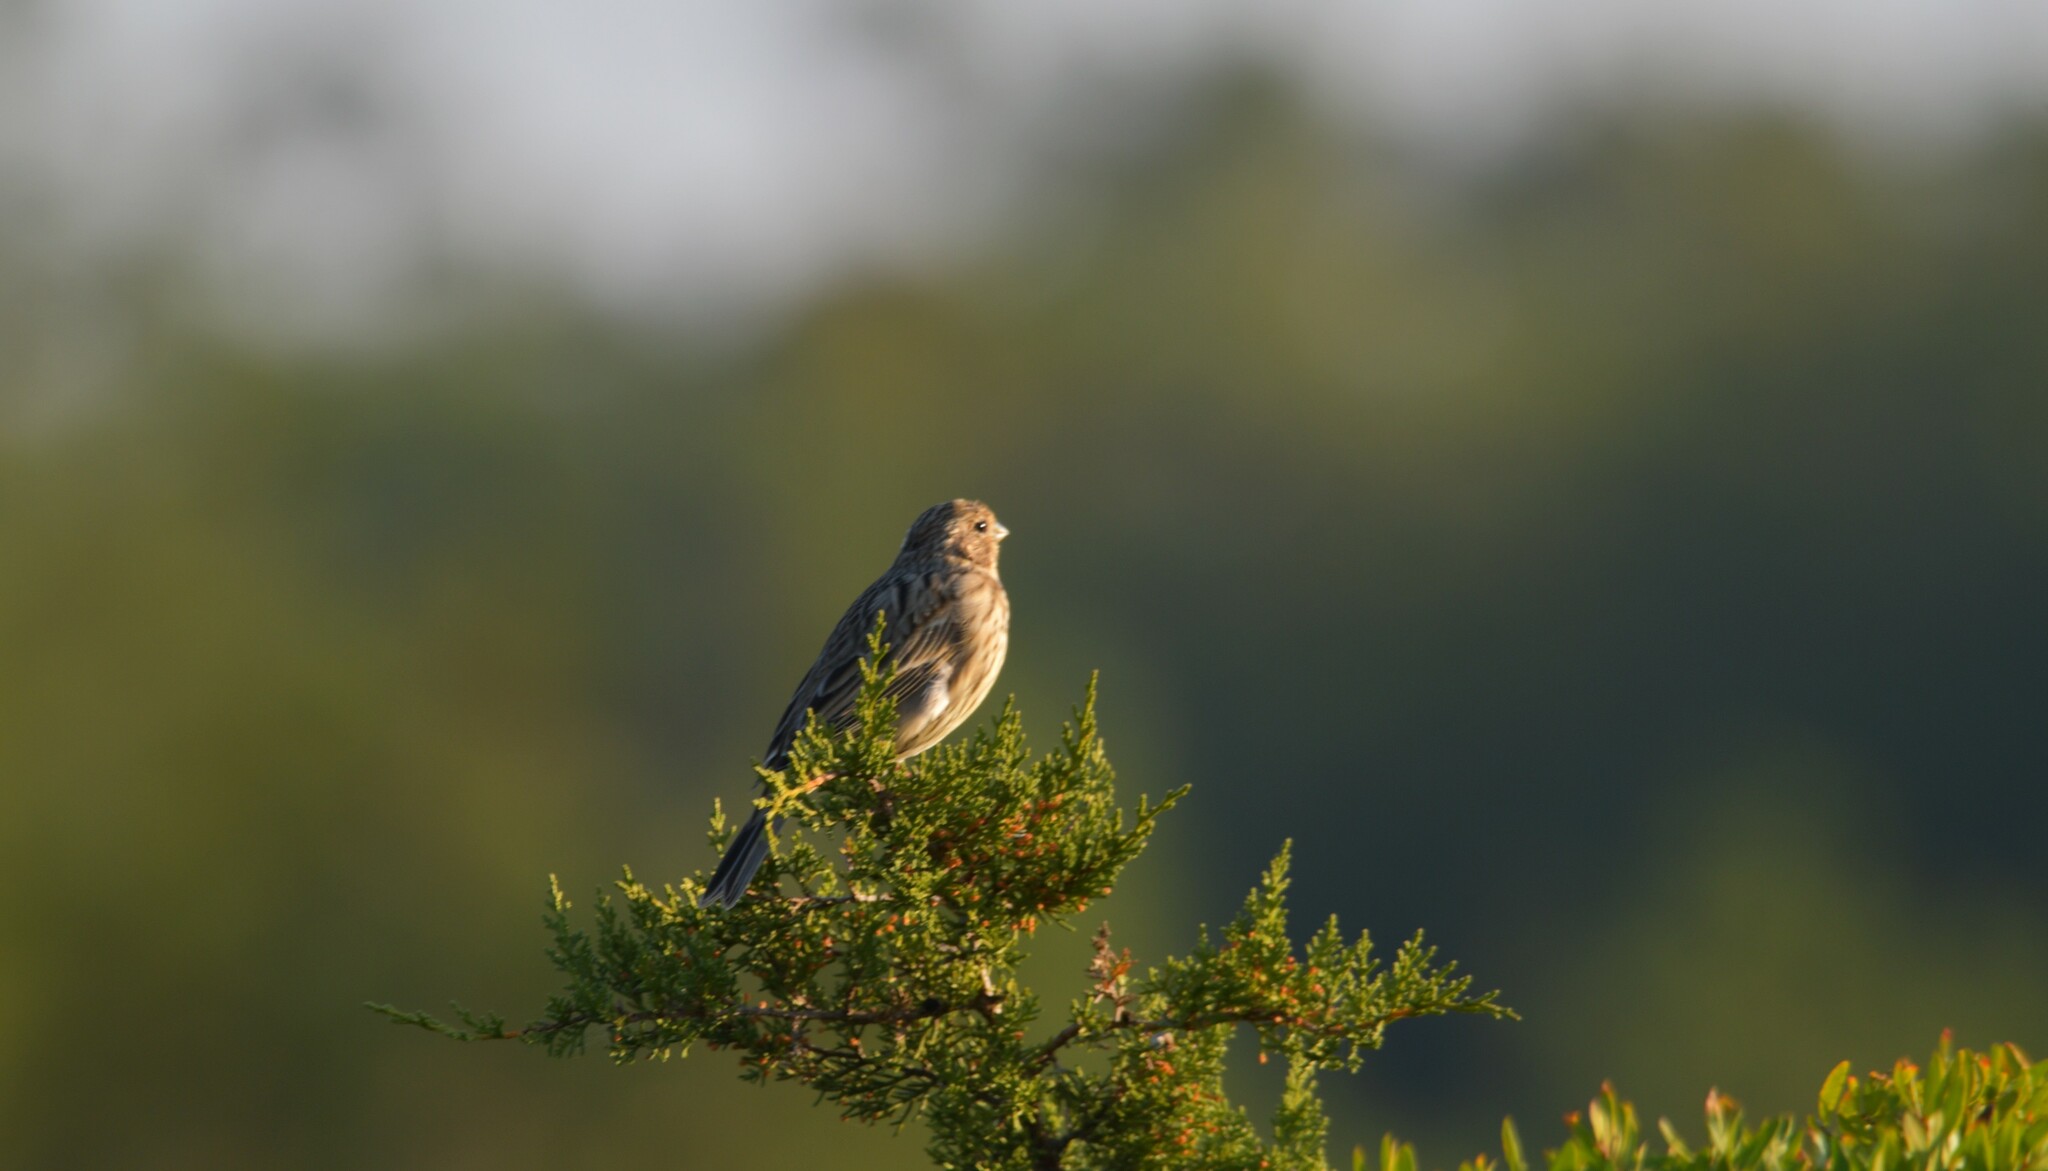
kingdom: Animalia
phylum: Chordata
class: Aves
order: Passeriformes
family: Emberizidae
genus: Emberiza
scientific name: Emberiza calandra
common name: Corn bunting
